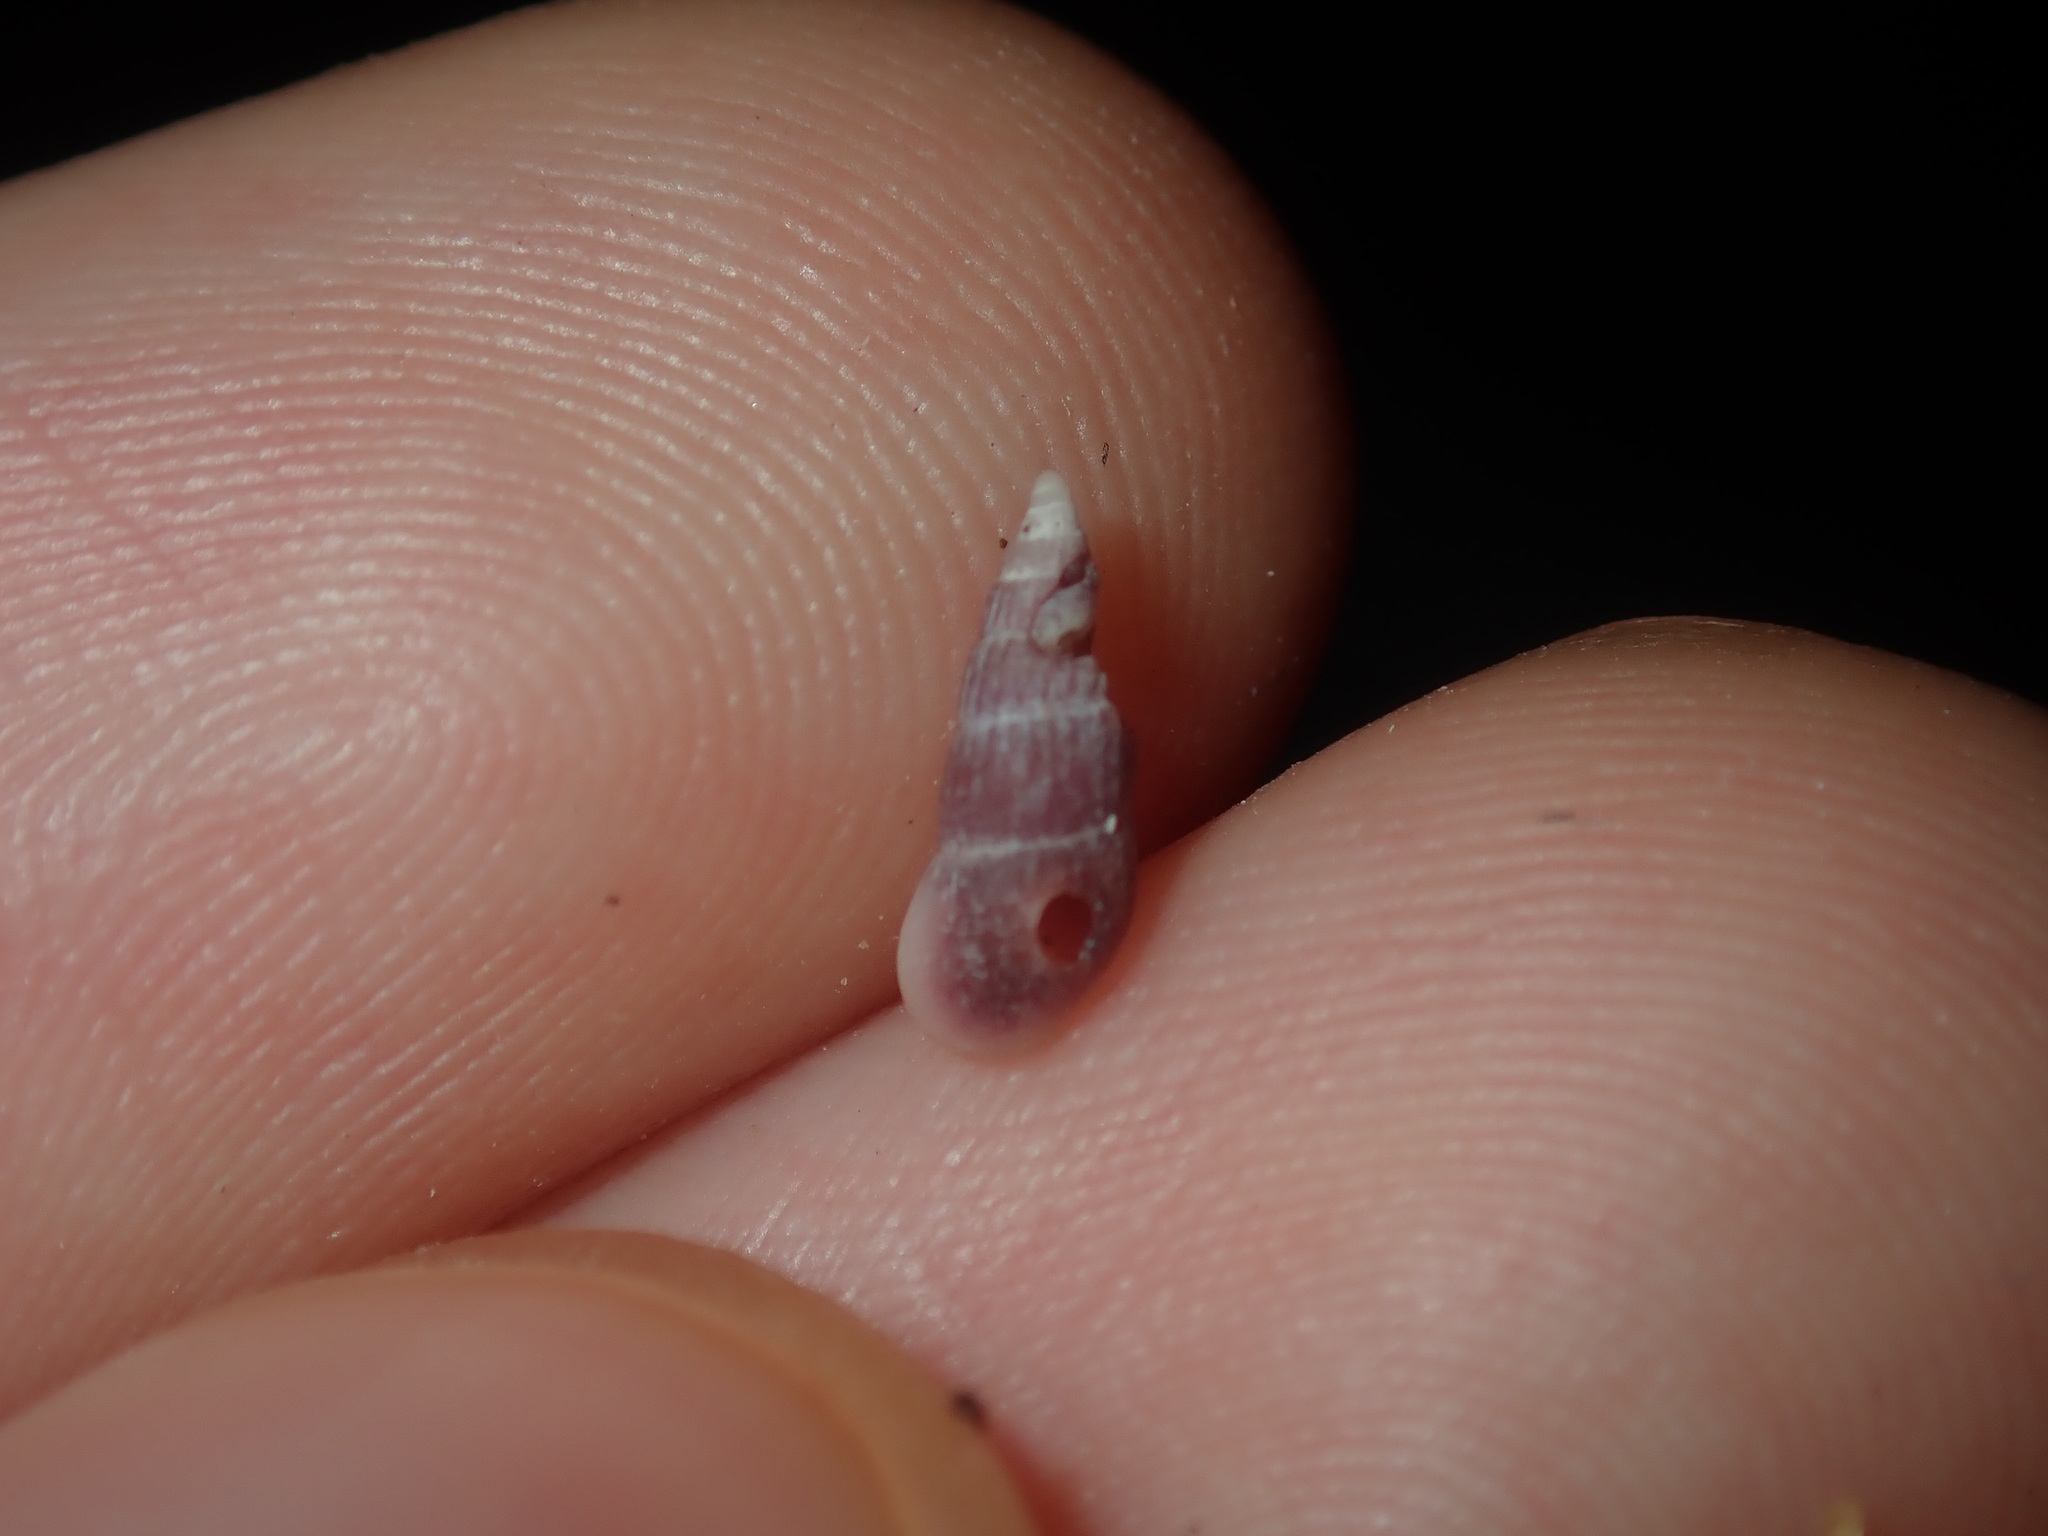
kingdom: Animalia
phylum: Mollusca
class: Gastropoda
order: Littorinimorpha
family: Rissoinidae
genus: Rissoina
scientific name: Rissoina fasciata
